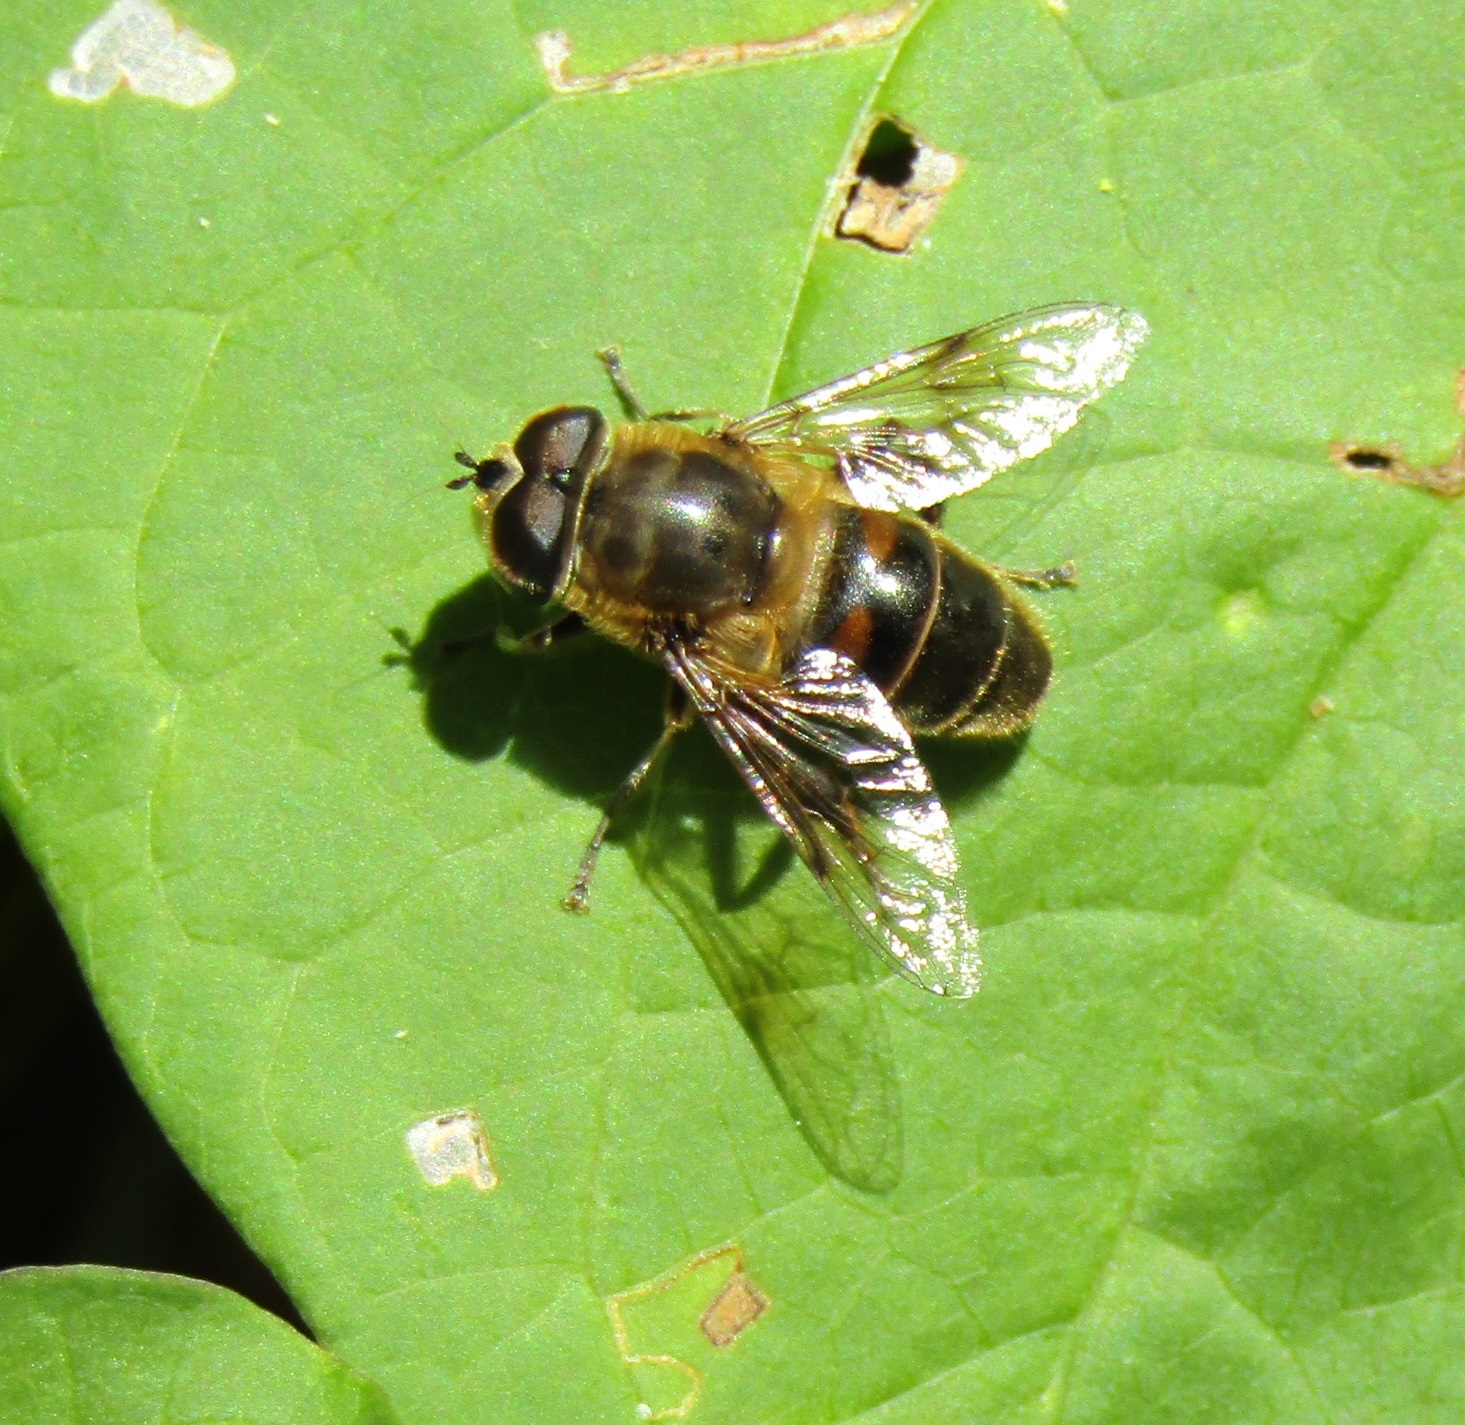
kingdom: Animalia
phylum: Arthropoda
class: Insecta
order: Diptera
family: Syrphidae
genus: Eristalis
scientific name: Eristalis tenax
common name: Drone fly
